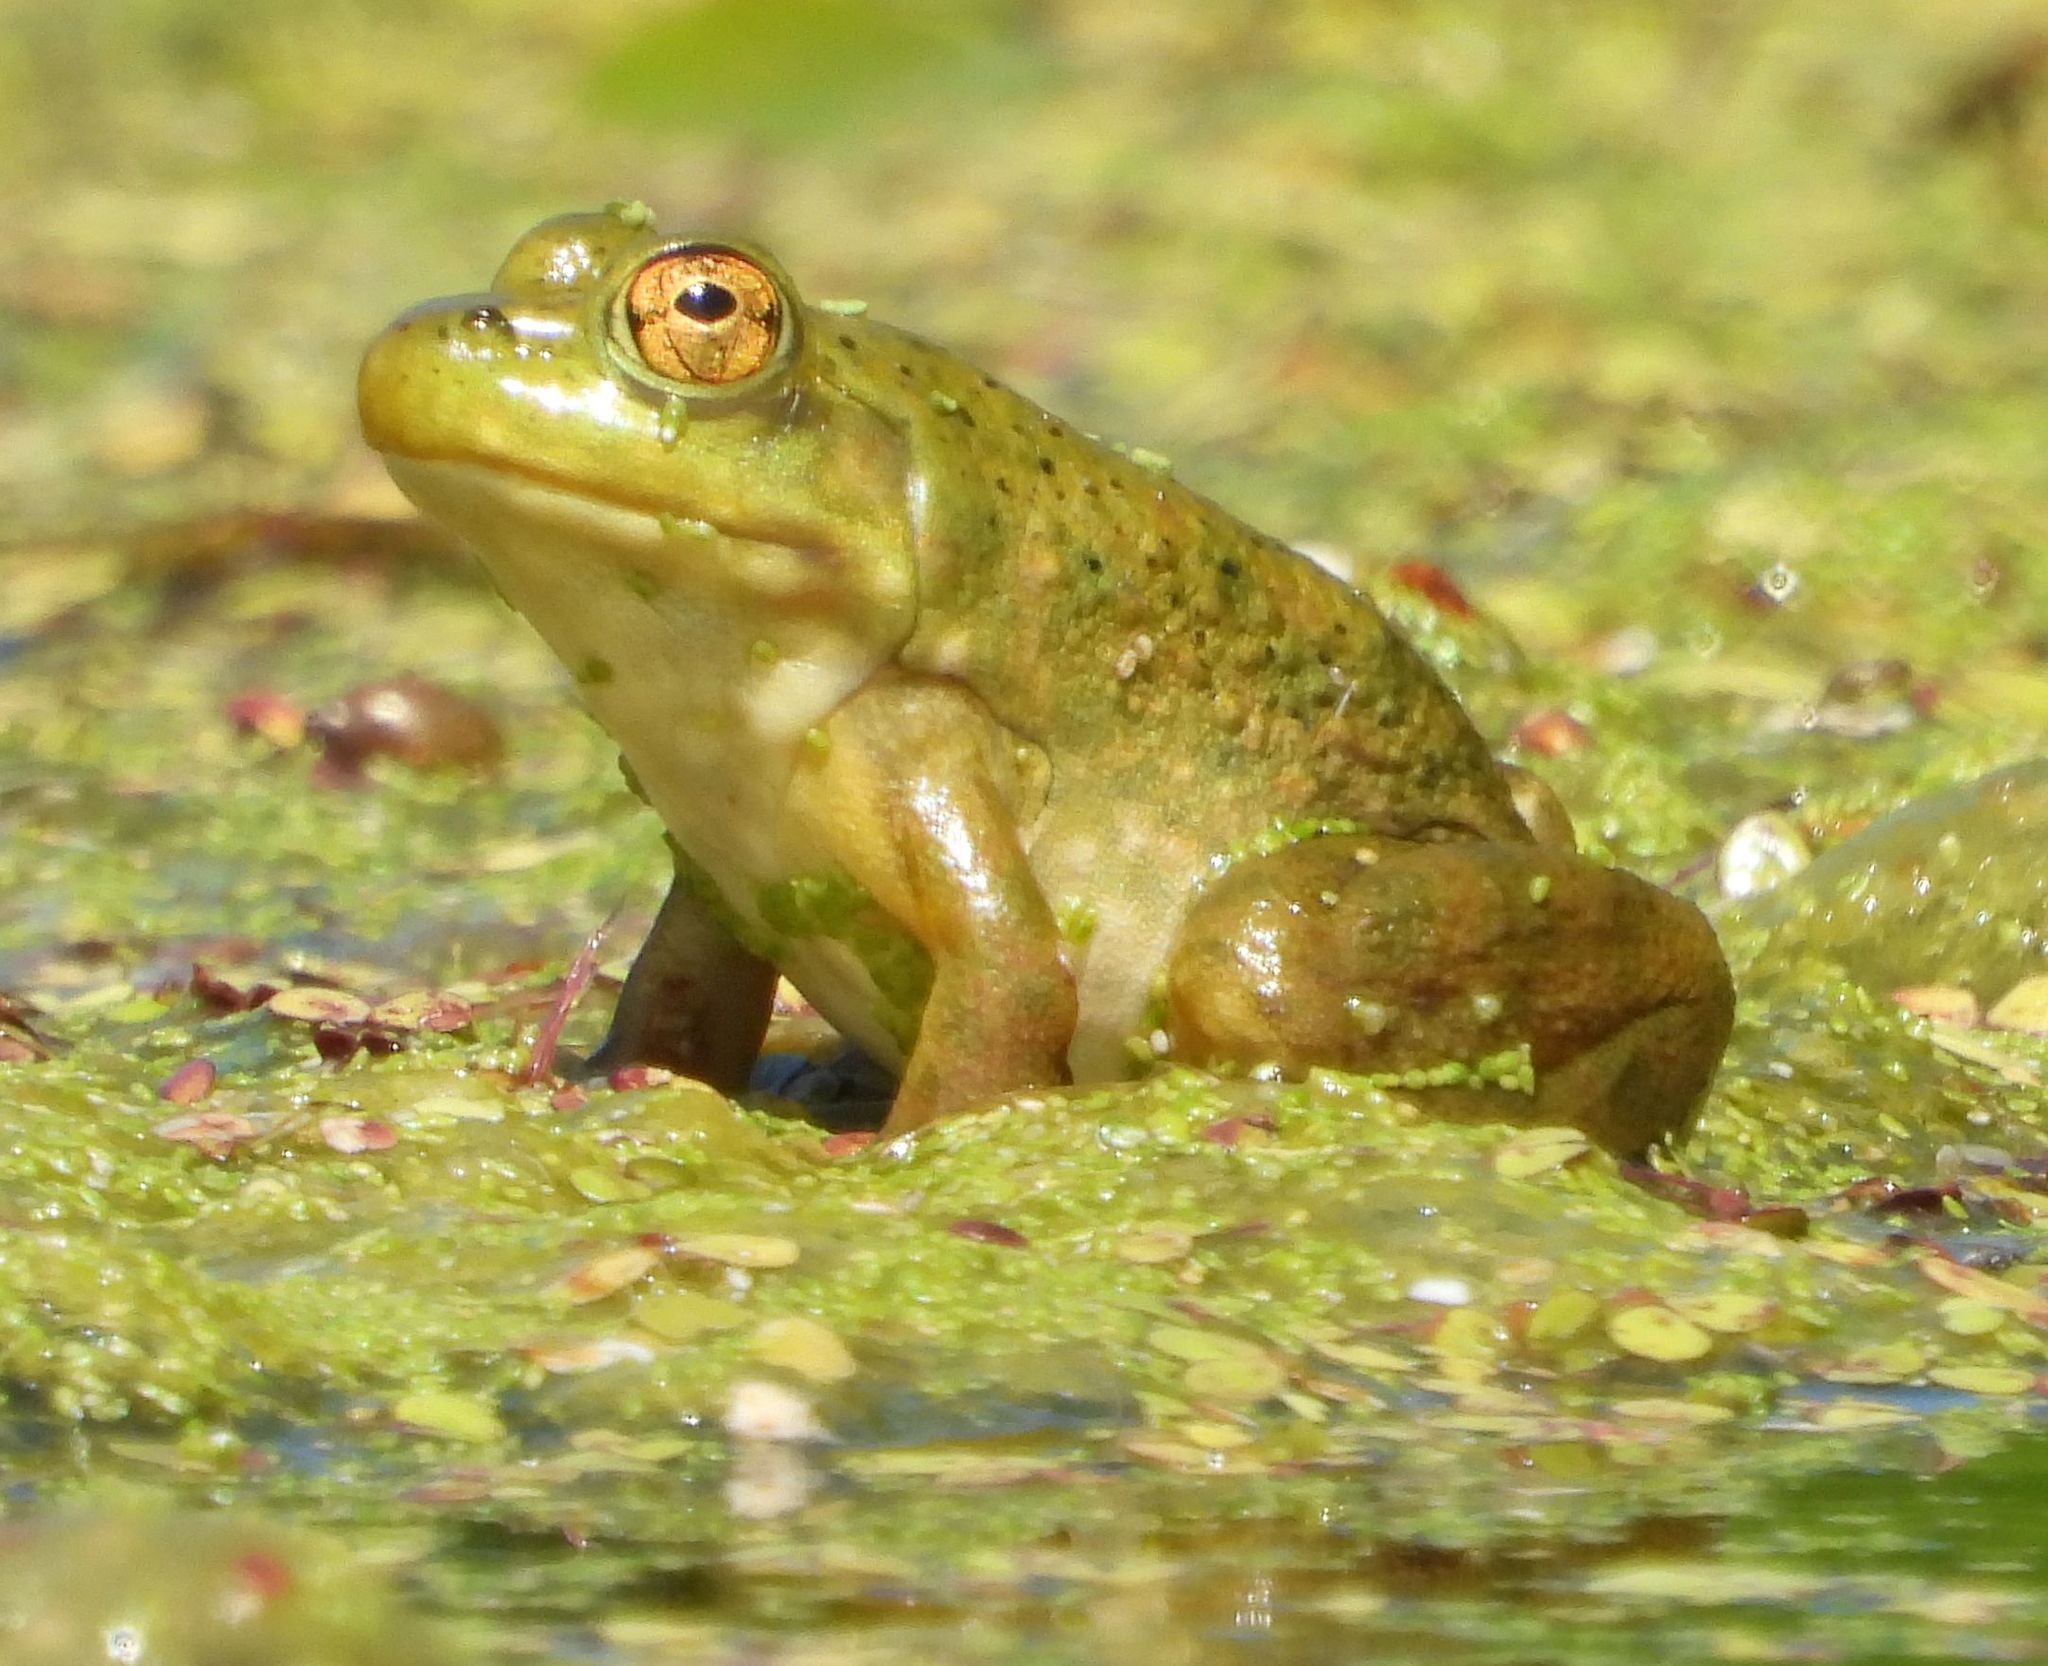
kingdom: Animalia
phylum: Chordata
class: Amphibia
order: Anura
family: Ranidae
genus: Lithobates
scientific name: Lithobates catesbeianus
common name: American bullfrog
